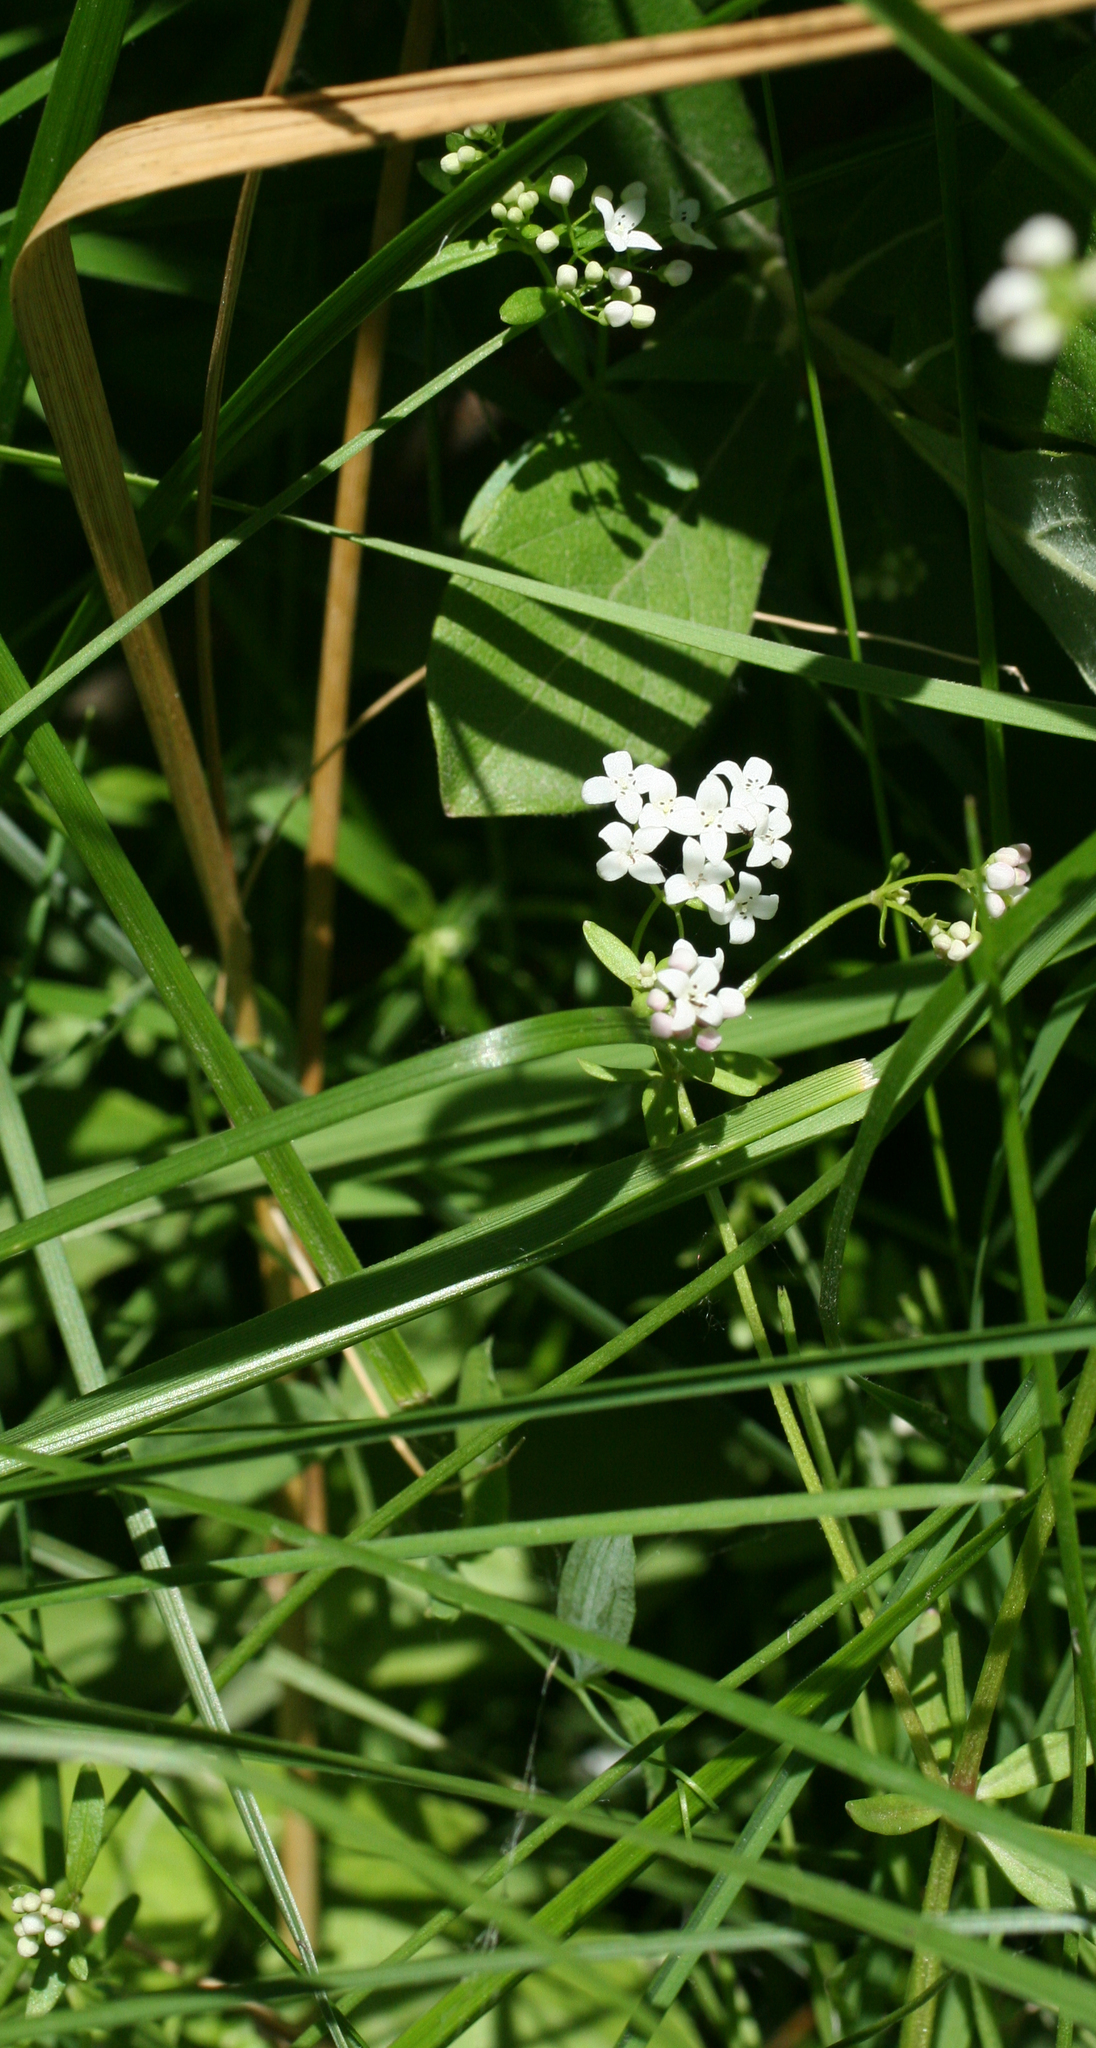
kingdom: Plantae
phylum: Tracheophyta
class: Magnoliopsida
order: Gentianales
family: Rubiaceae
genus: Galium
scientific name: Galium palustre
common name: Common marsh-bedstraw
